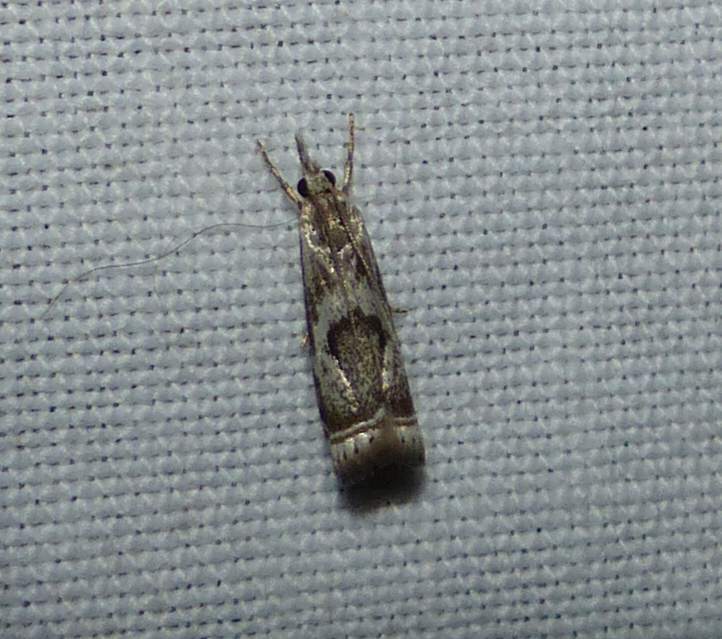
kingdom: Animalia
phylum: Arthropoda
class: Insecta
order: Lepidoptera
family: Crambidae
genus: Microcrambus
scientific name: Microcrambus elegans
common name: Elegant grass-veneer
